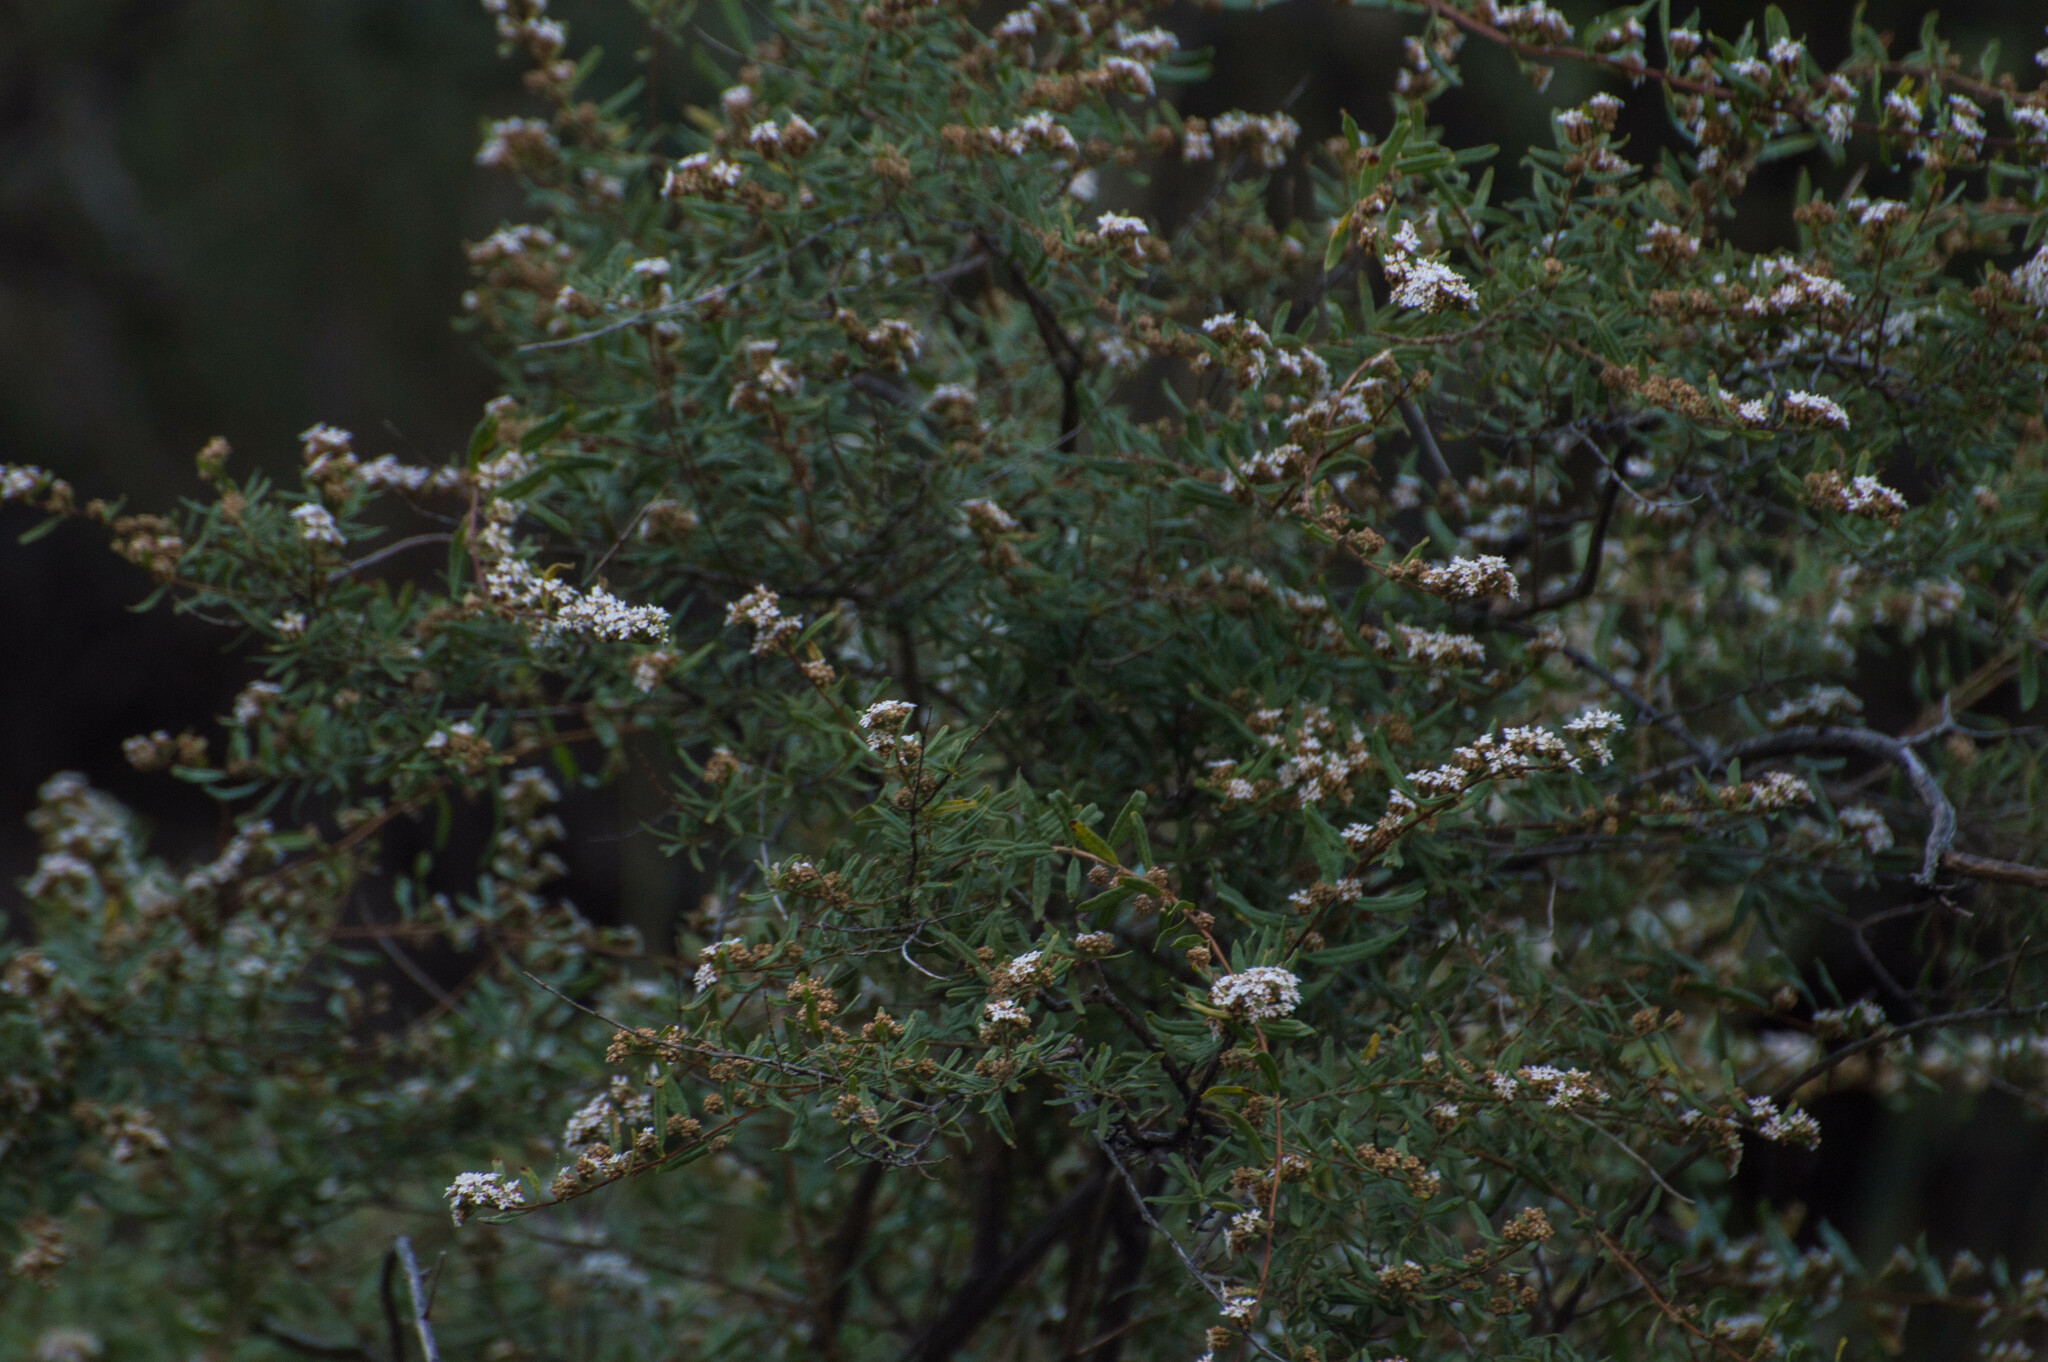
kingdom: Plantae
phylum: Tracheophyta
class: Magnoliopsida
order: Lamiales
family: Verbenaceae
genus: Lippia
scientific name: Lippia integrifolia
